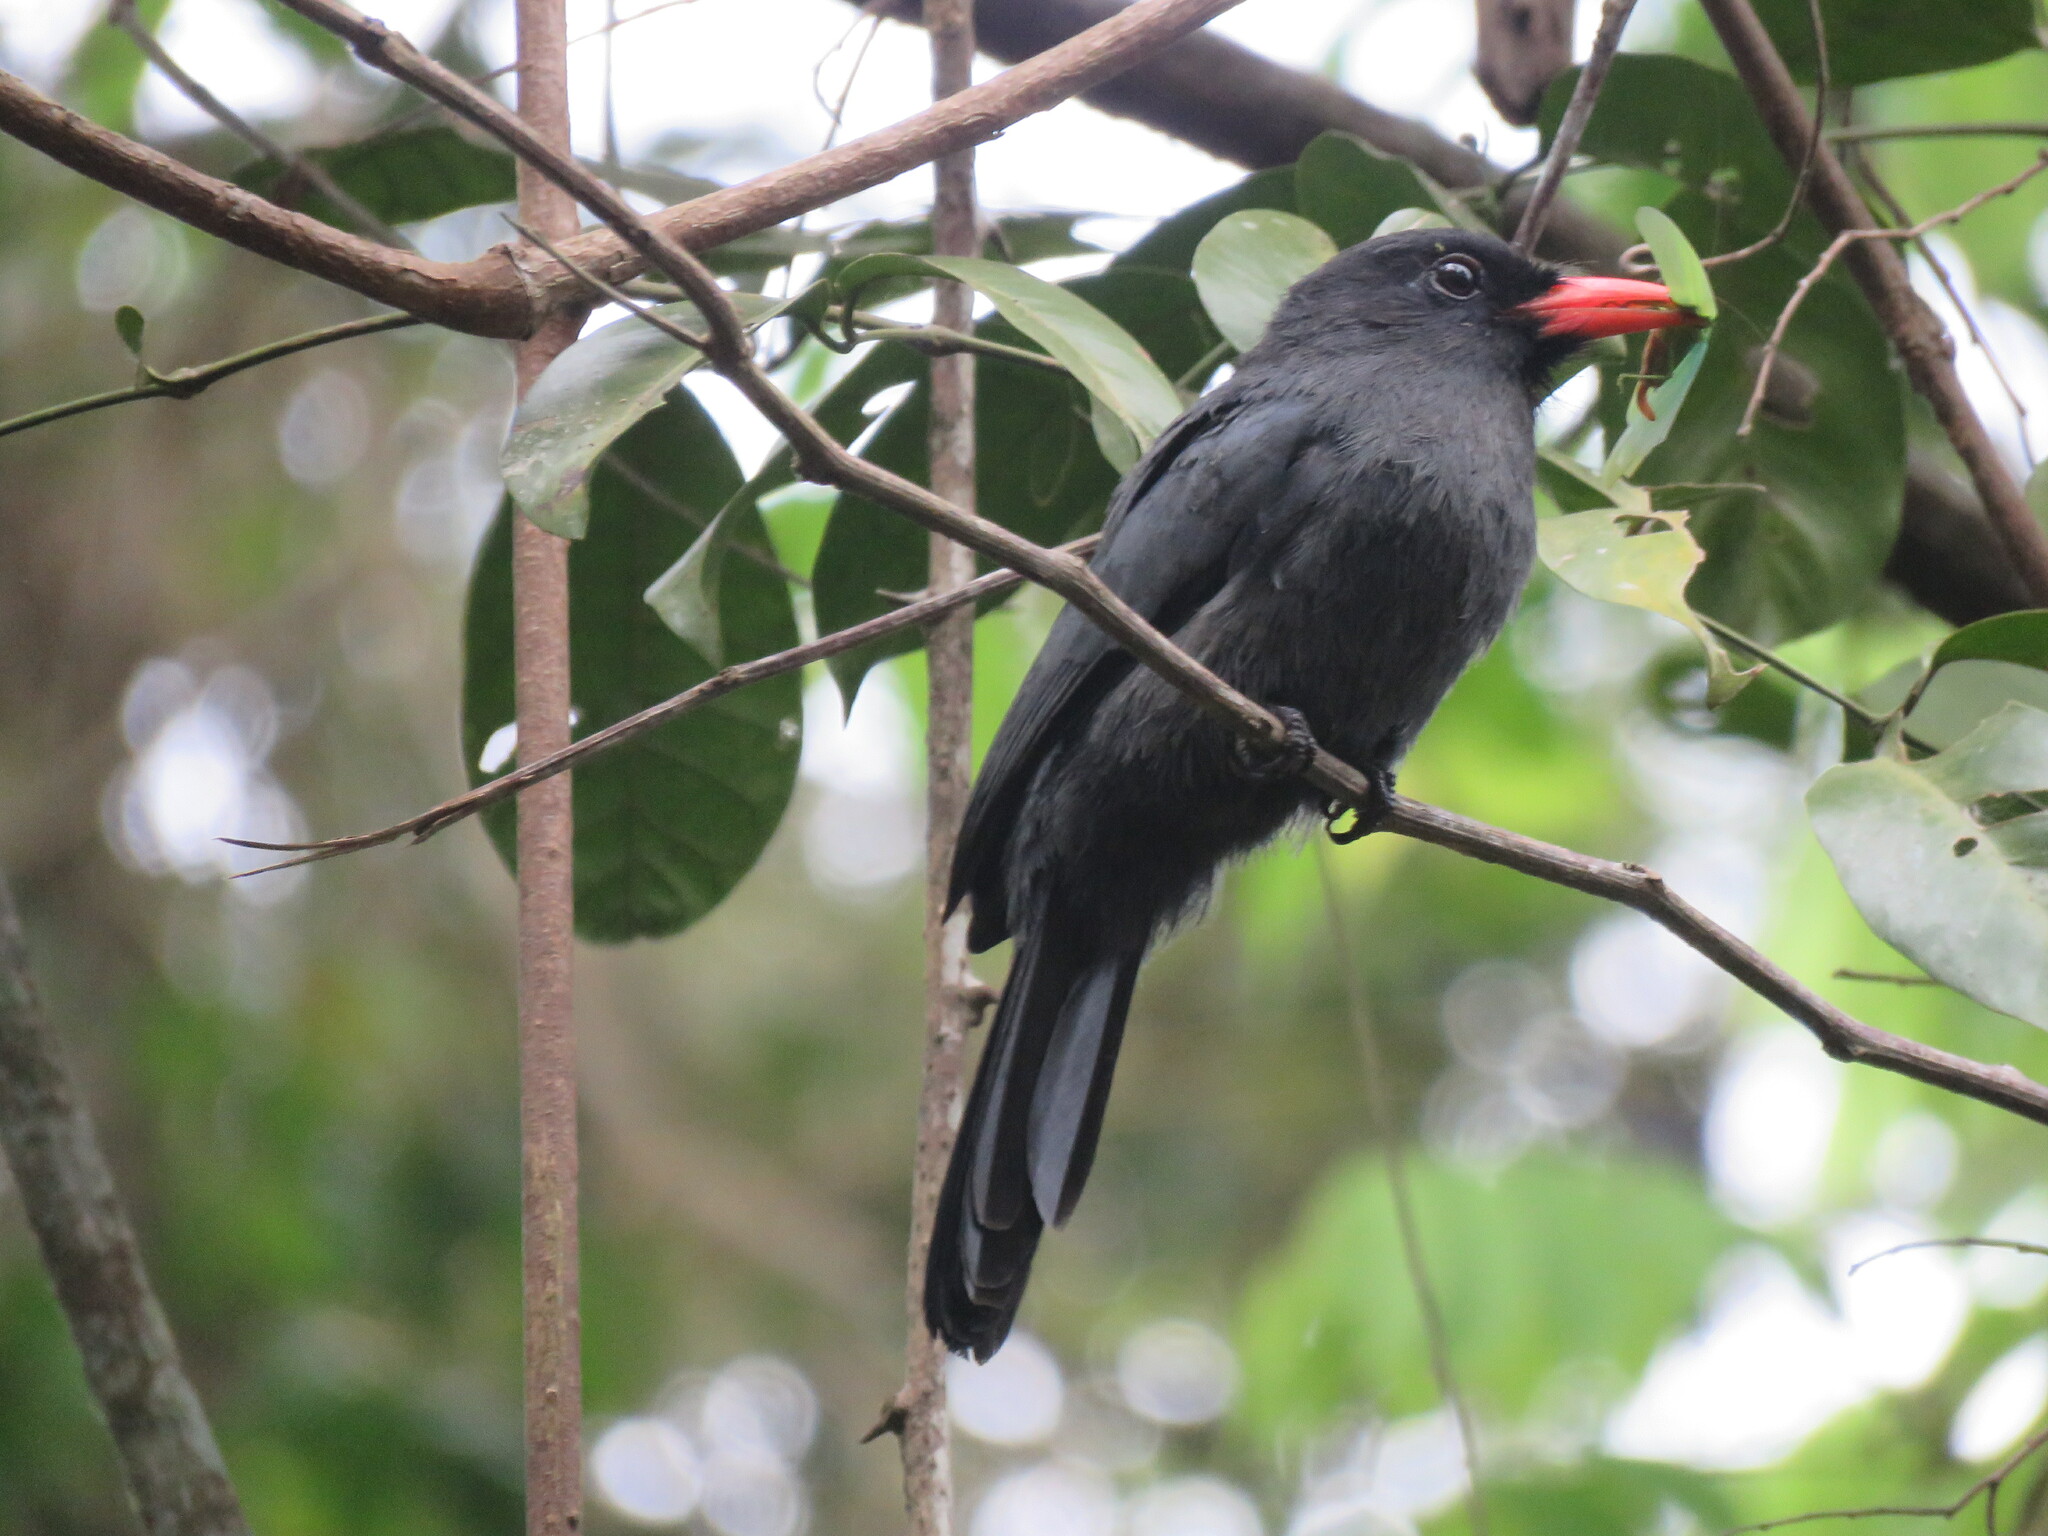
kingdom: Animalia
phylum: Chordata
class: Aves
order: Piciformes
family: Bucconidae
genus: Monasa
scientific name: Monasa nigrifrons
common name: Black-fronted nunbird
